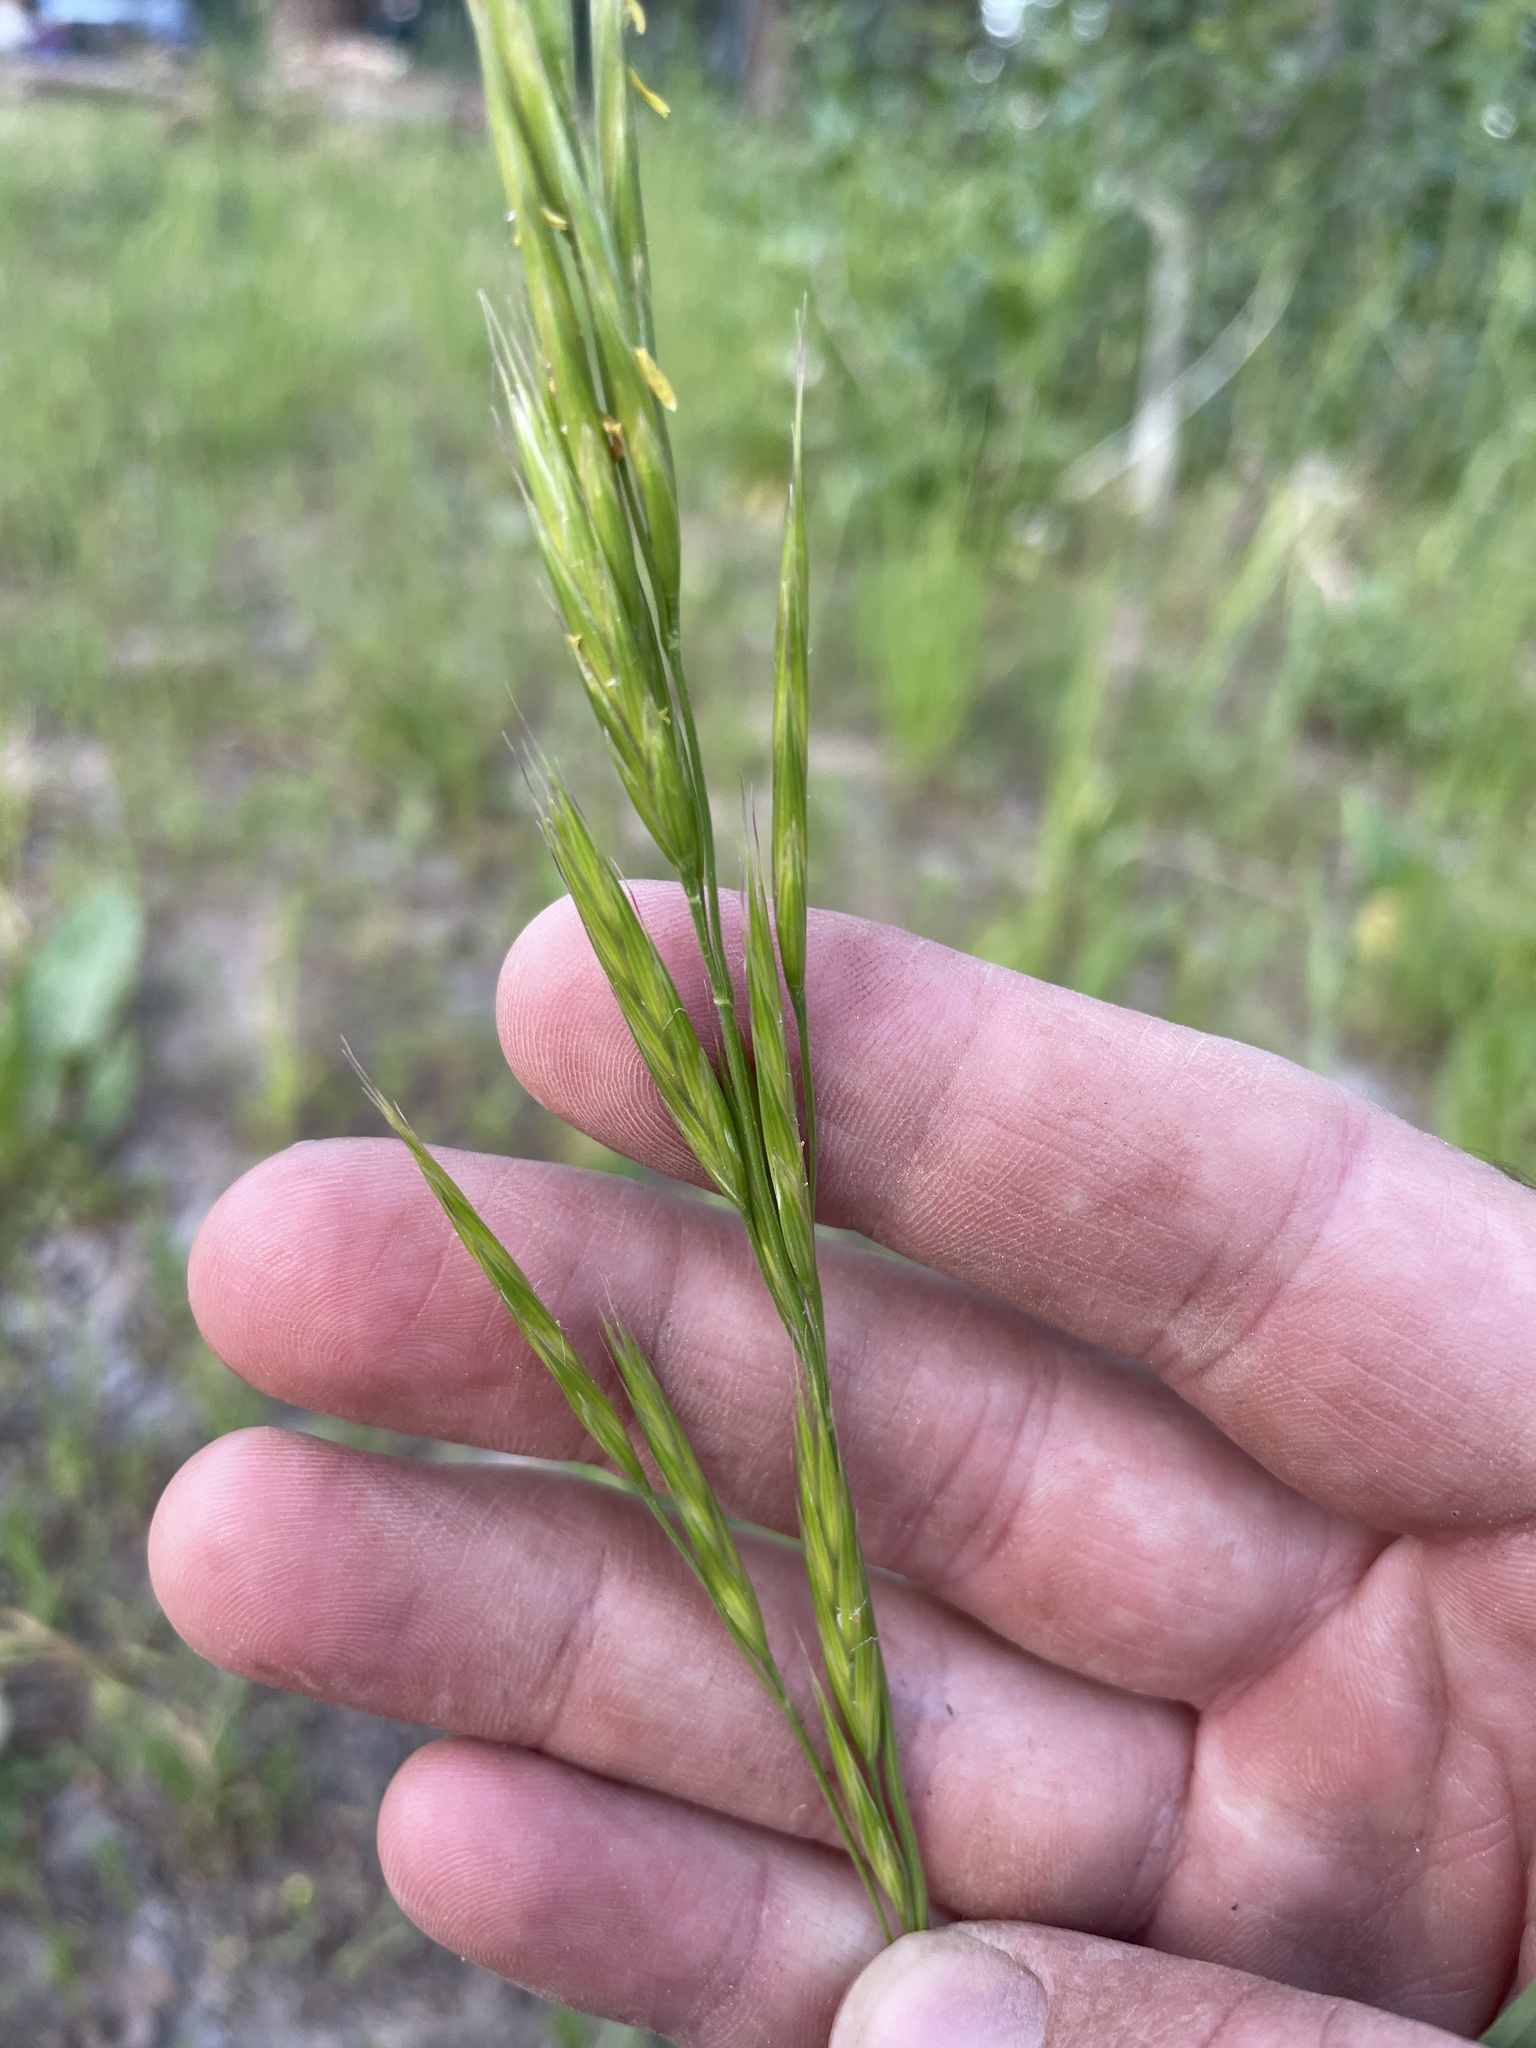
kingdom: Plantae
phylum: Tracheophyta
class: Liliopsida
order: Poales
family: Poaceae
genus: Bromus
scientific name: Bromus marginatus
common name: Western brome
